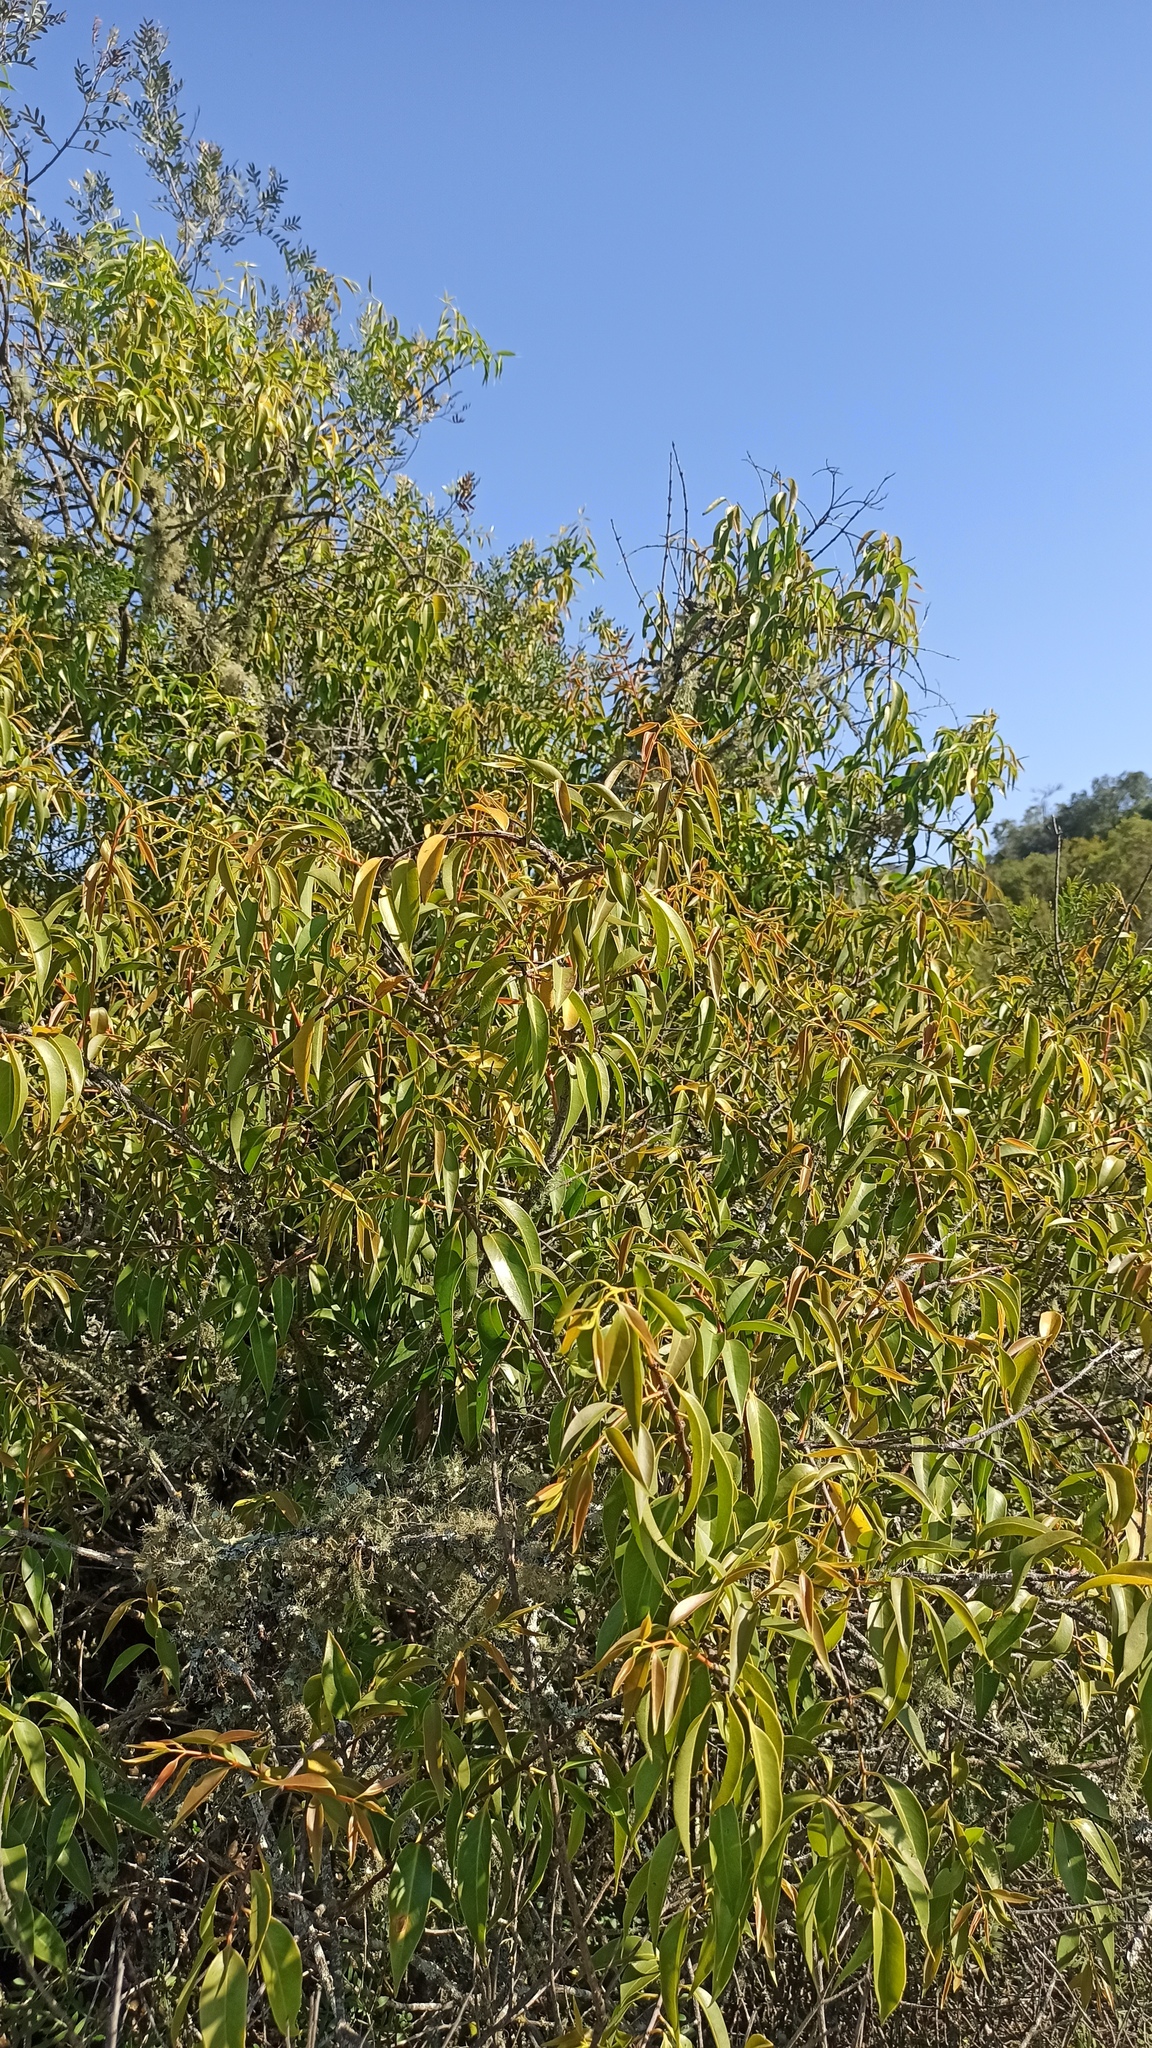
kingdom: Plantae
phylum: Tracheophyta
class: Magnoliopsida
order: Santalales
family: Loranthaceae
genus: Tripodanthus
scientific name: Tripodanthus acutifolius
